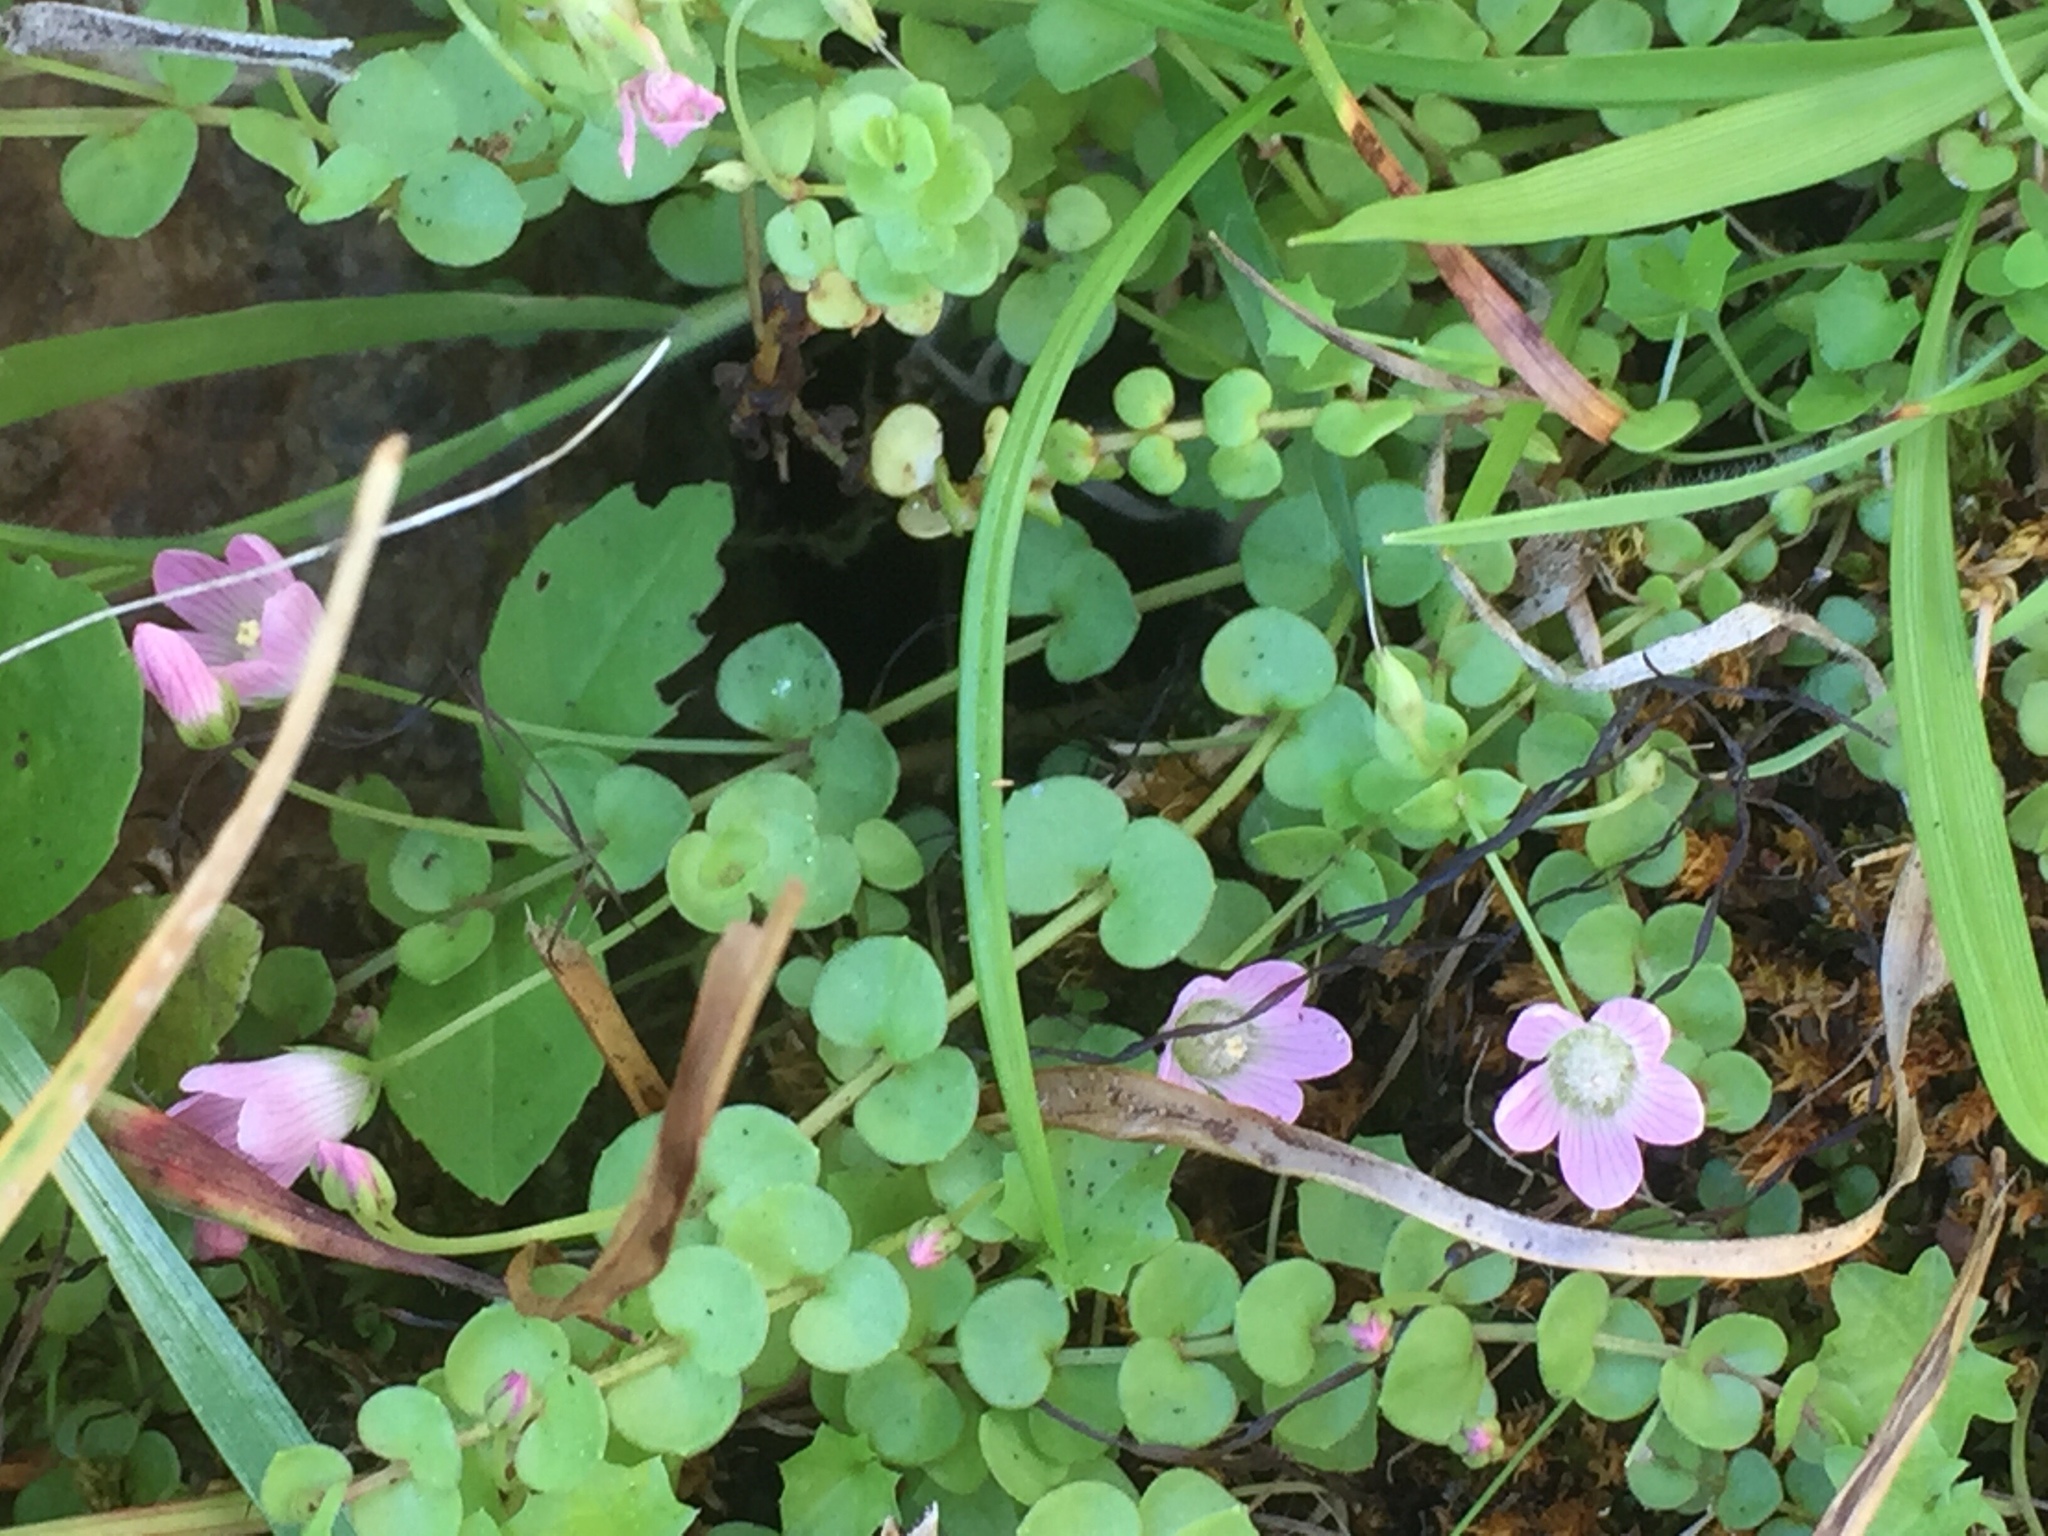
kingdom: Plantae
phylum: Tracheophyta
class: Magnoliopsida
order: Ericales
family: Primulaceae
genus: Lysimachia
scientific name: Lysimachia tenella
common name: European bog pimpernel
